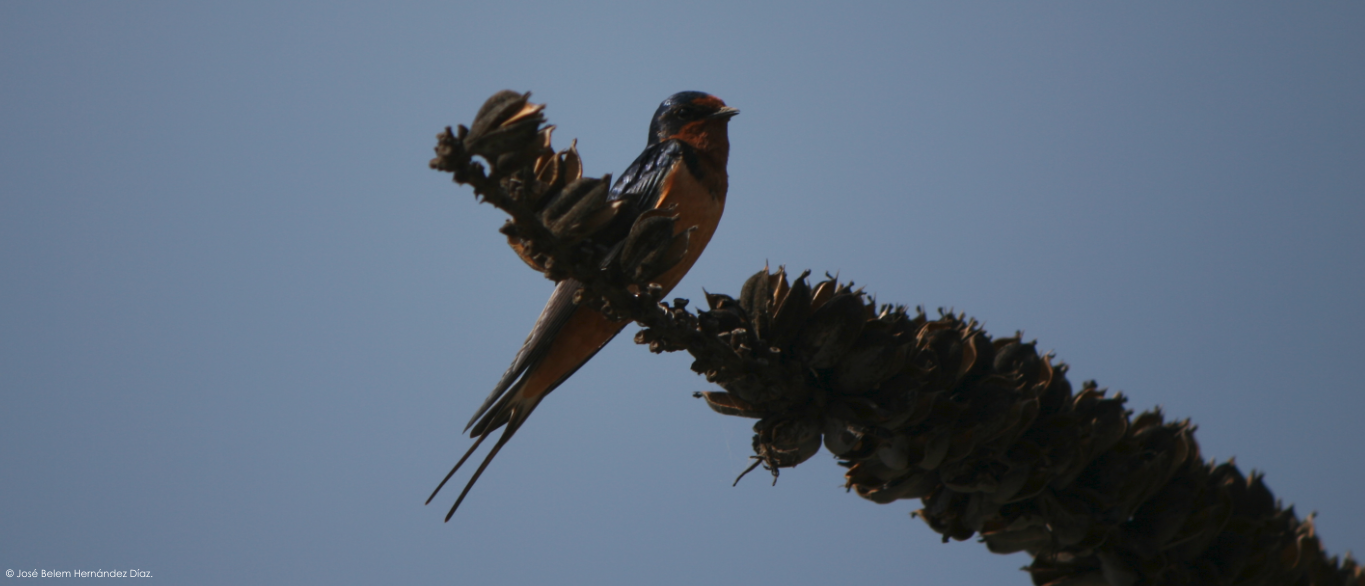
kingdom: Animalia
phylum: Chordata
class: Aves
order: Passeriformes
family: Hirundinidae
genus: Hirundo
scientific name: Hirundo rustica
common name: Barn swallow
